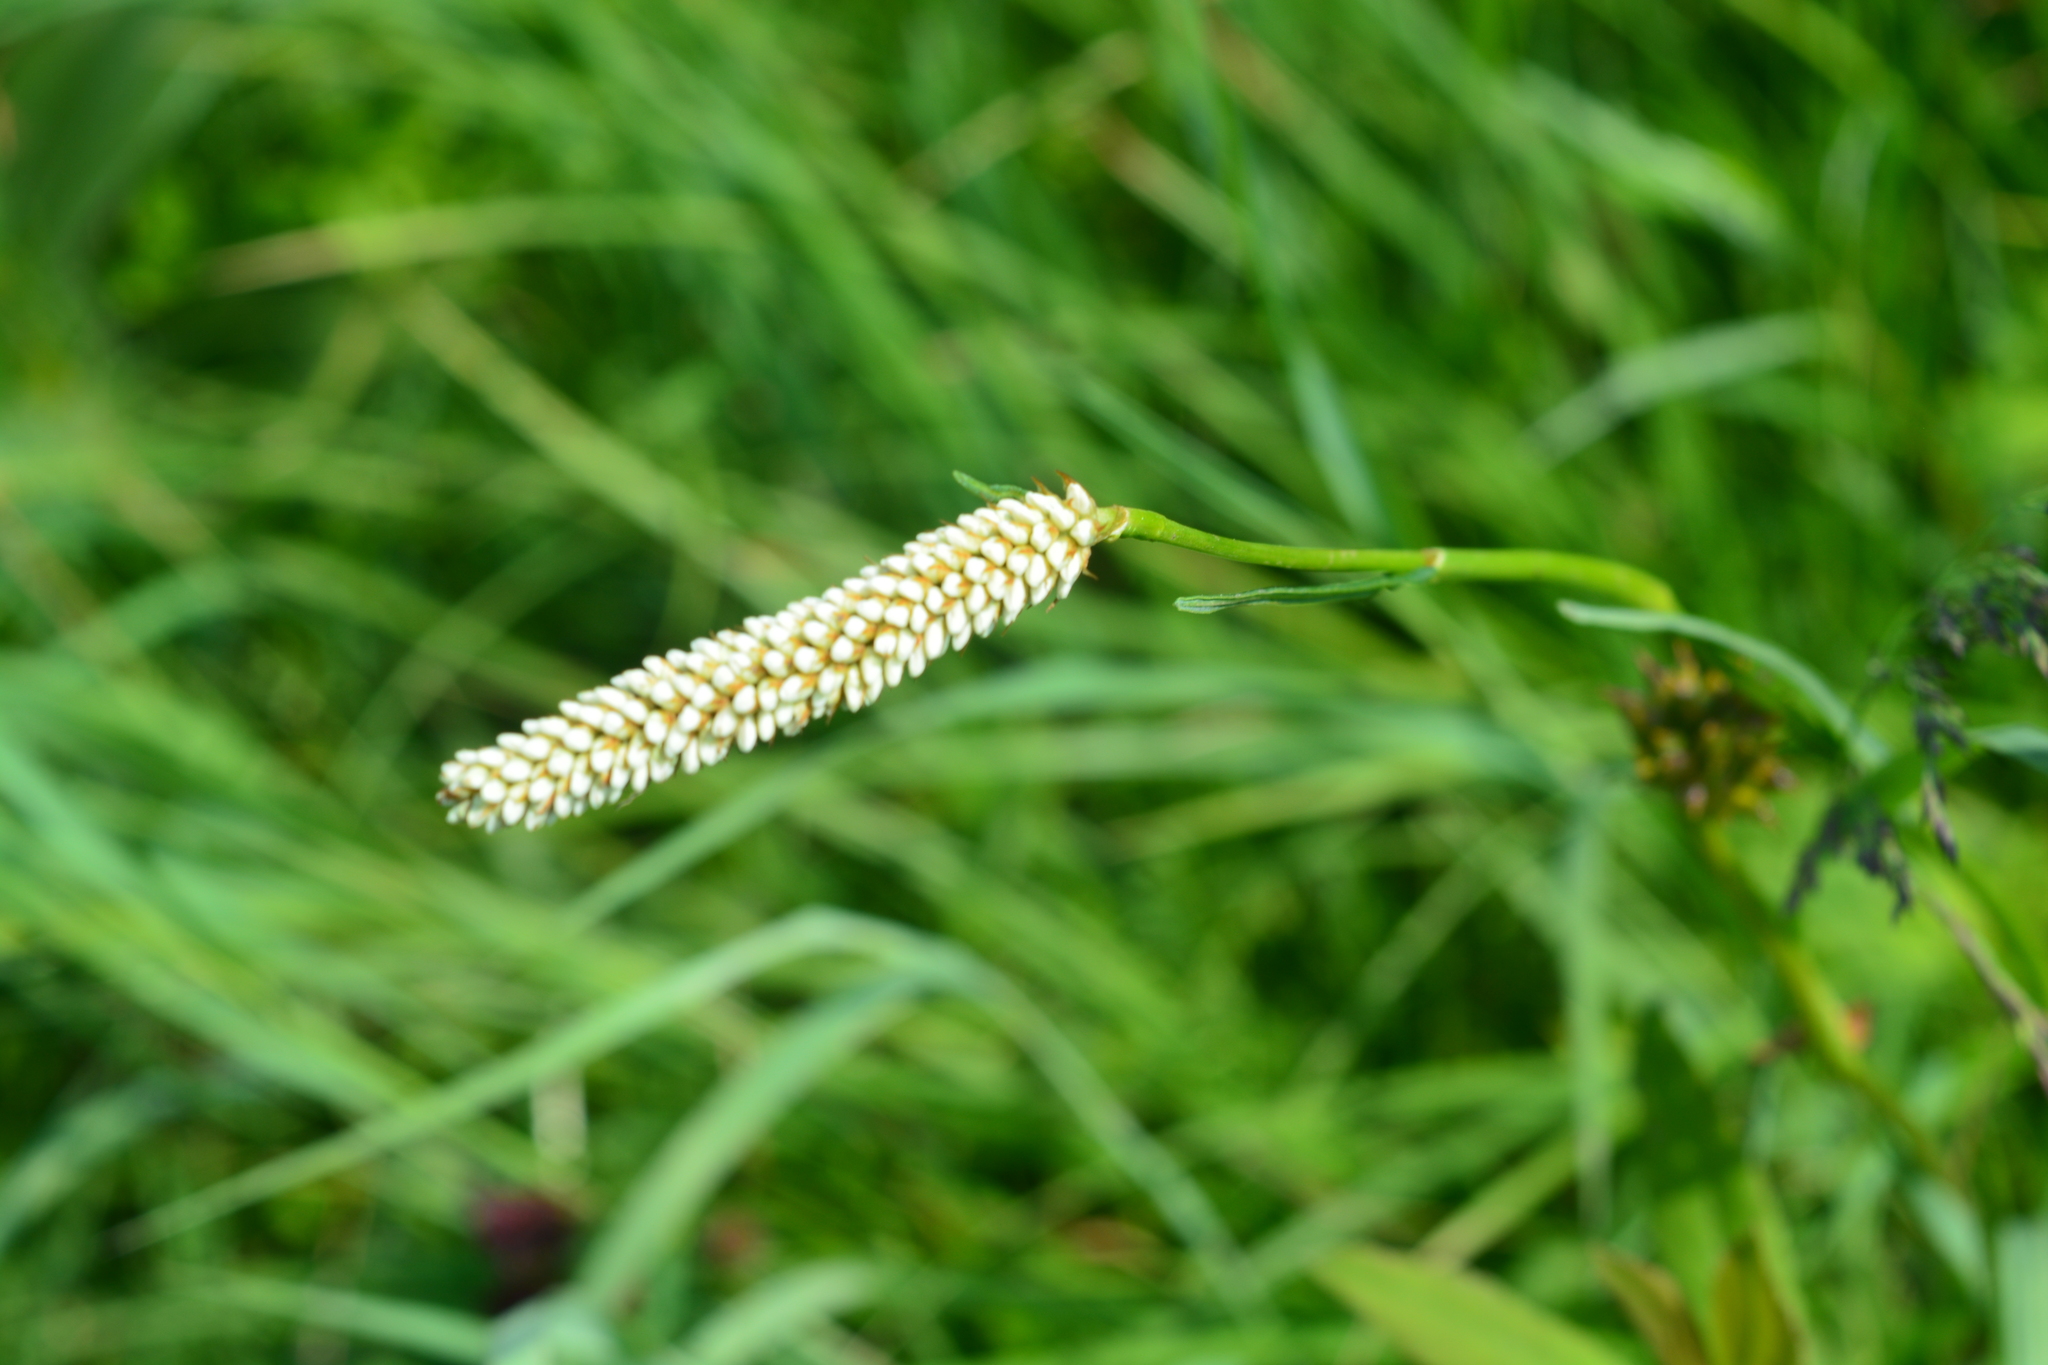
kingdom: Plantae
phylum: Tracheophyta
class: Magnoliopsida
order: Caryophyllales
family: Polygonaceae
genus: Bistorta
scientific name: Bistorta officinalis
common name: Common bistort
